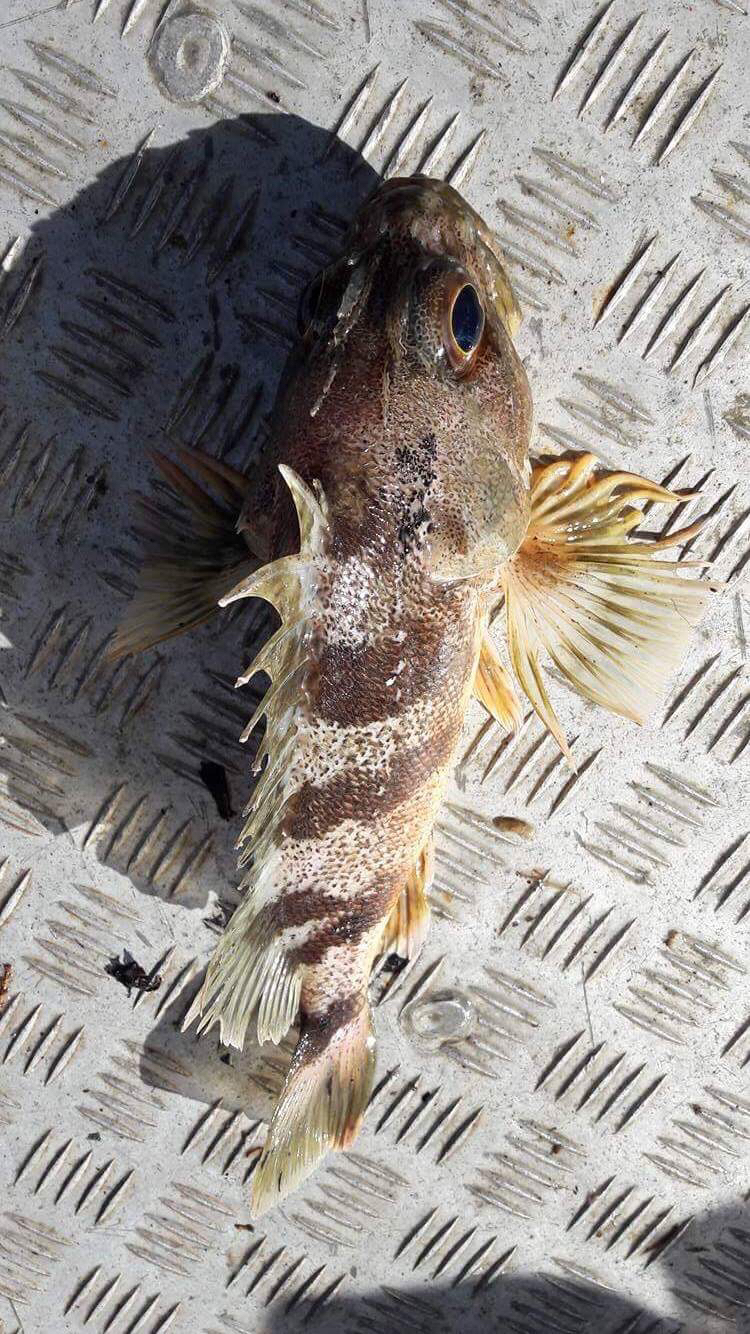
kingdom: Animalia
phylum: Chordata
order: Scorpaeniformes
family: Sebastidae
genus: Helicolenus
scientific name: Helicolenus percoides
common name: Jock stewart
